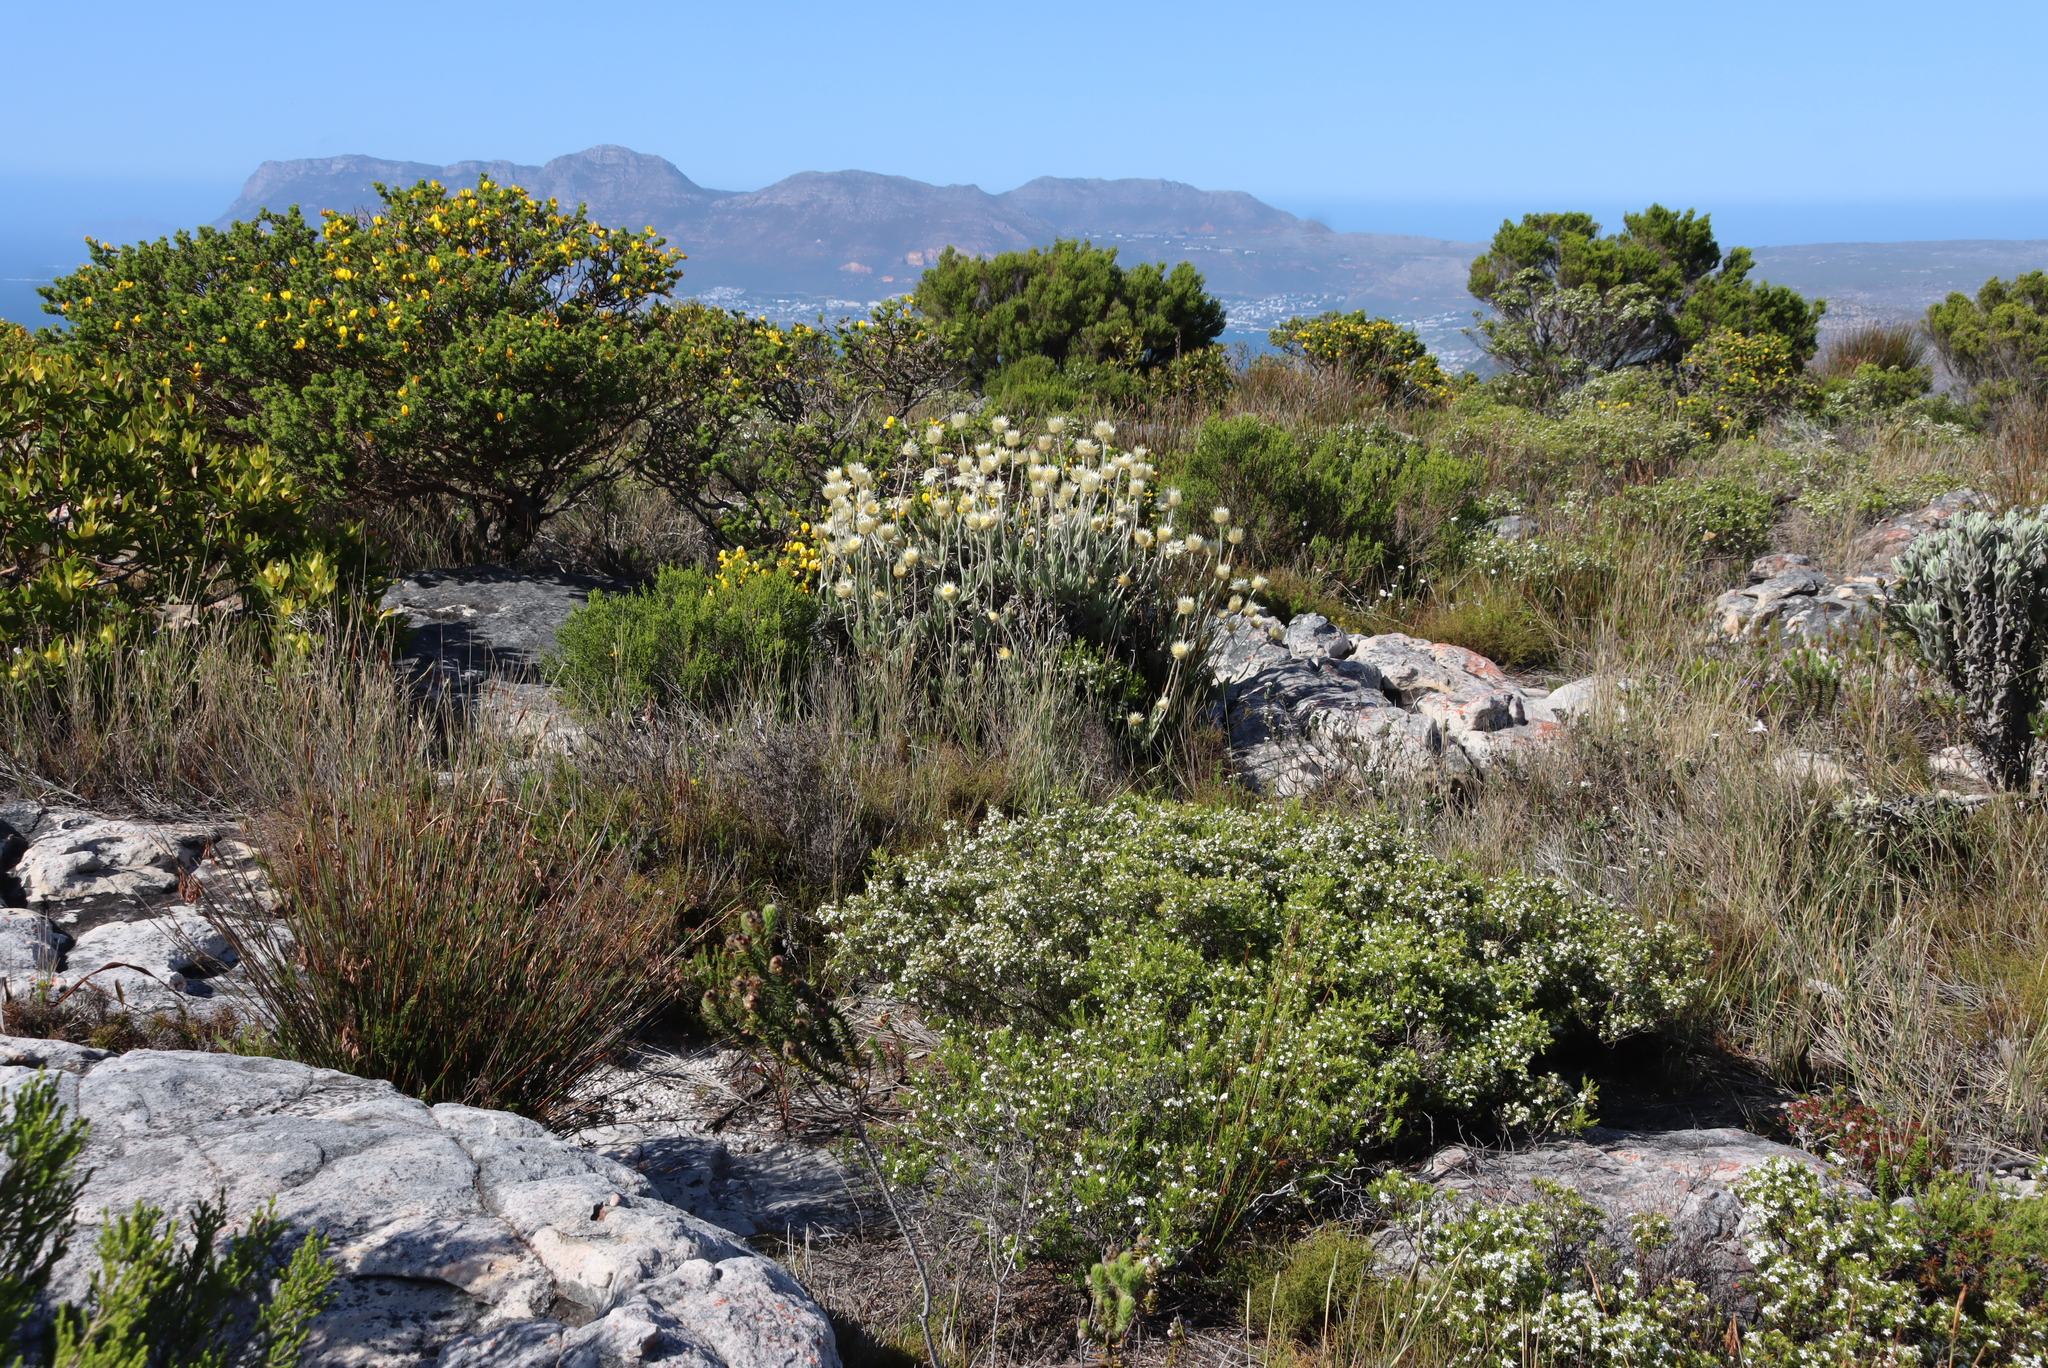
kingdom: Plantae
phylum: Tracheophyta
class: Magnoliopsida
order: Sapindales
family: Rutaceae
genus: Coleonema
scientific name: Coleonema album
